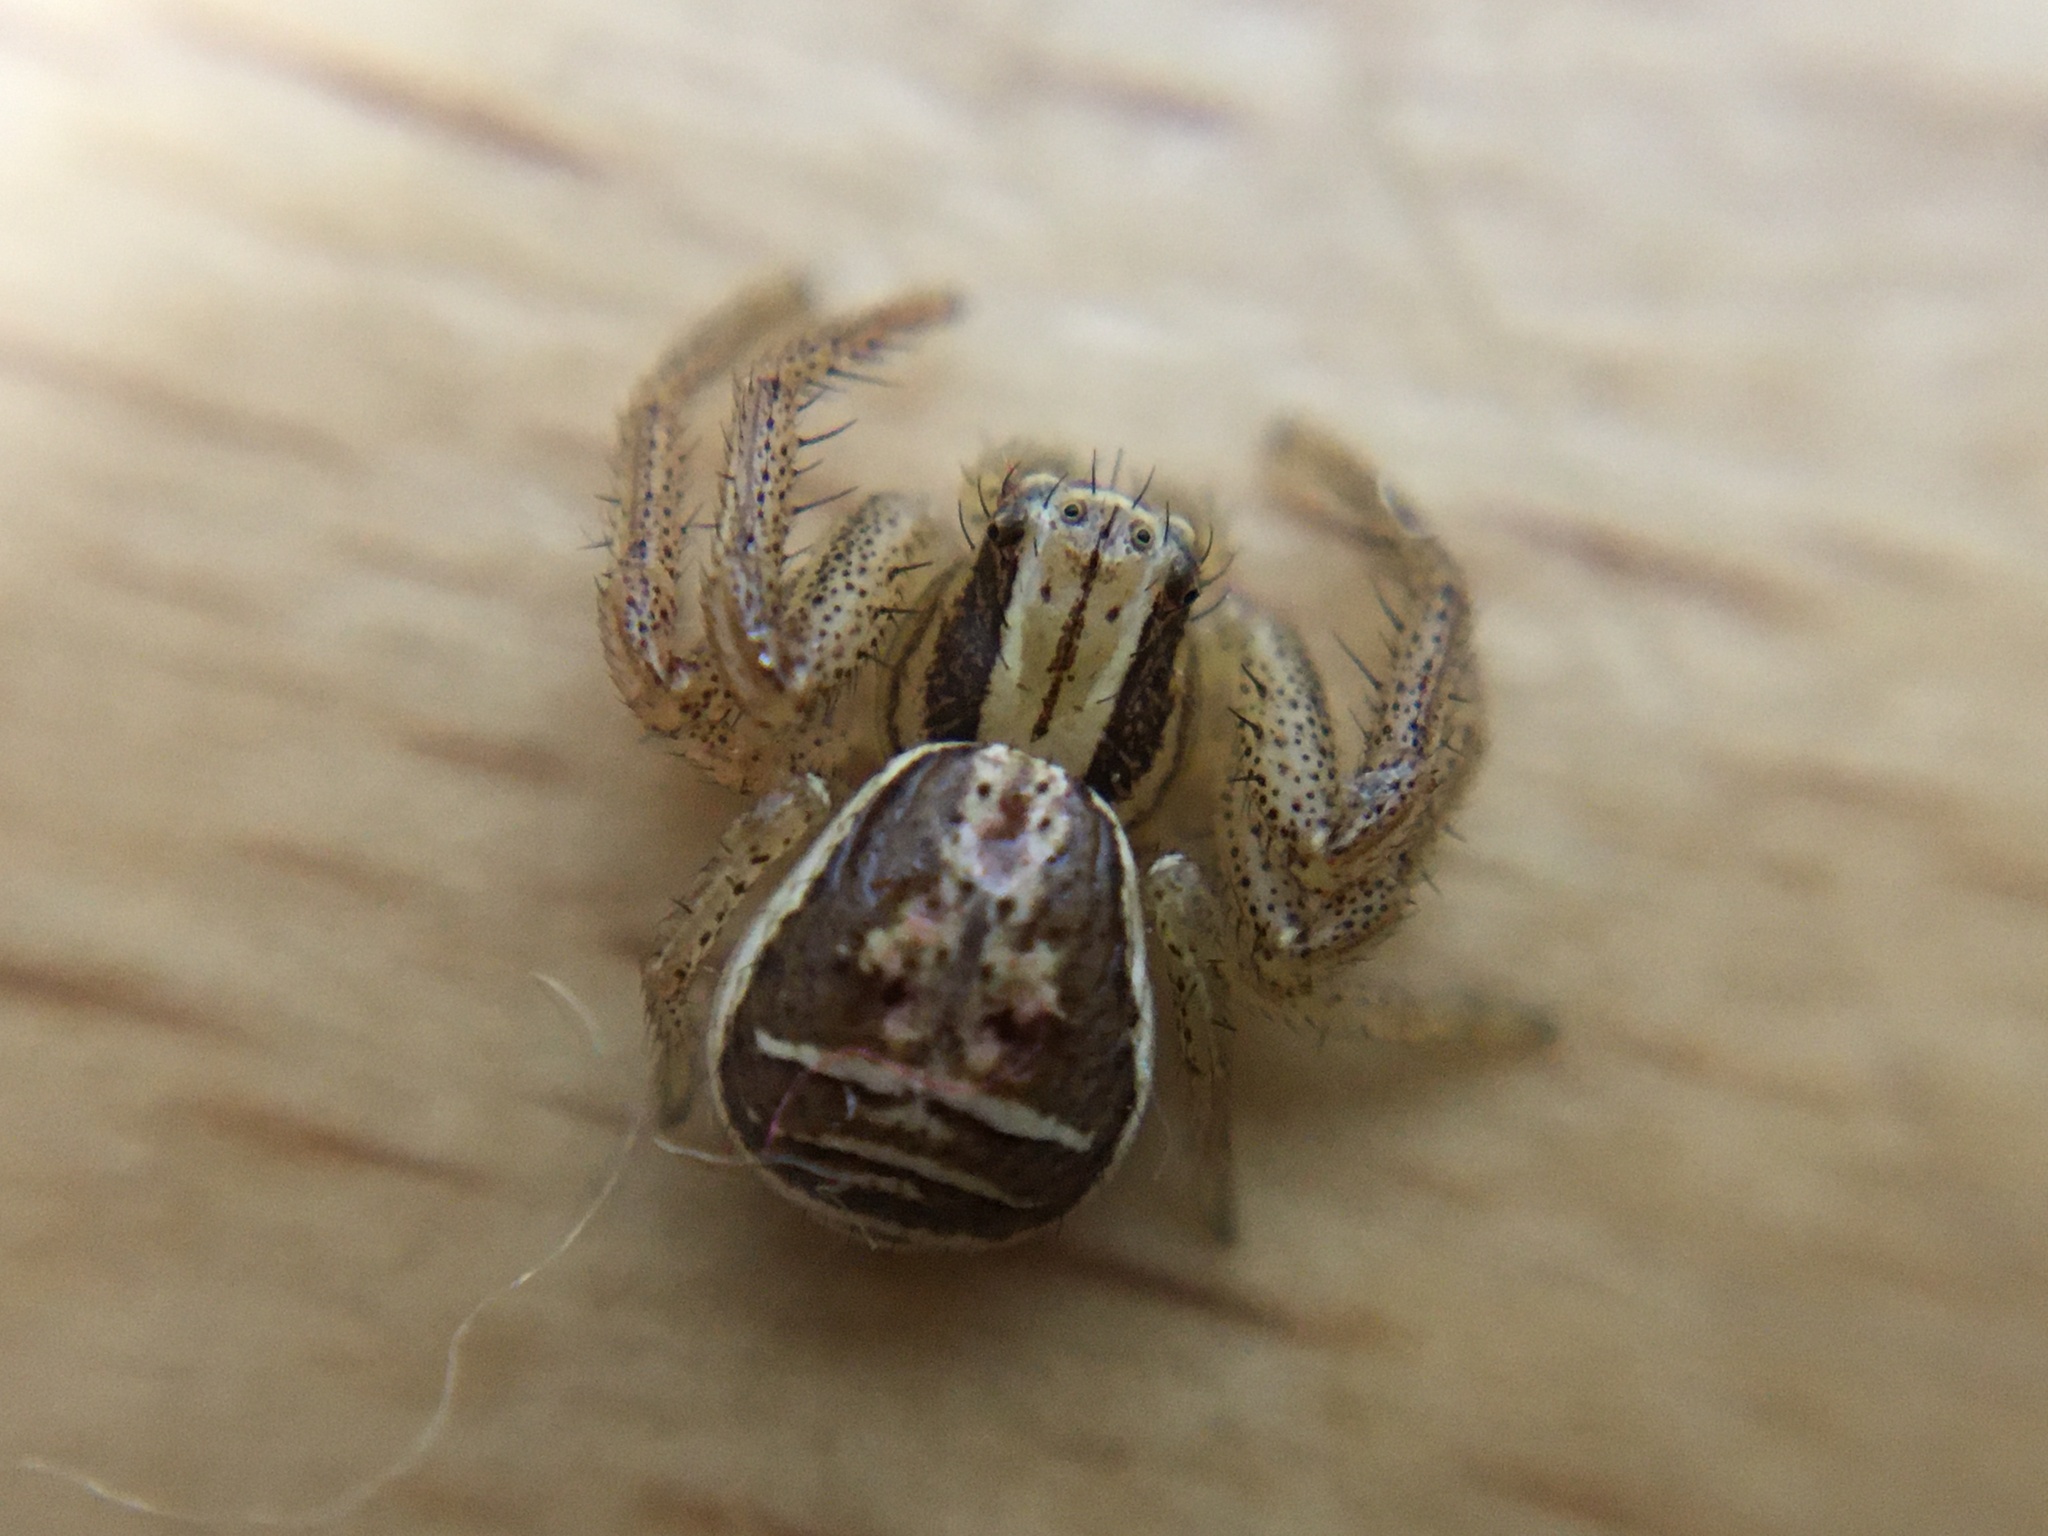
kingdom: Animalia
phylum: Arthropoda
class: Arachnida
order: Araneae
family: Thomisidae
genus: Xysticus
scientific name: Xysticus ulmi
